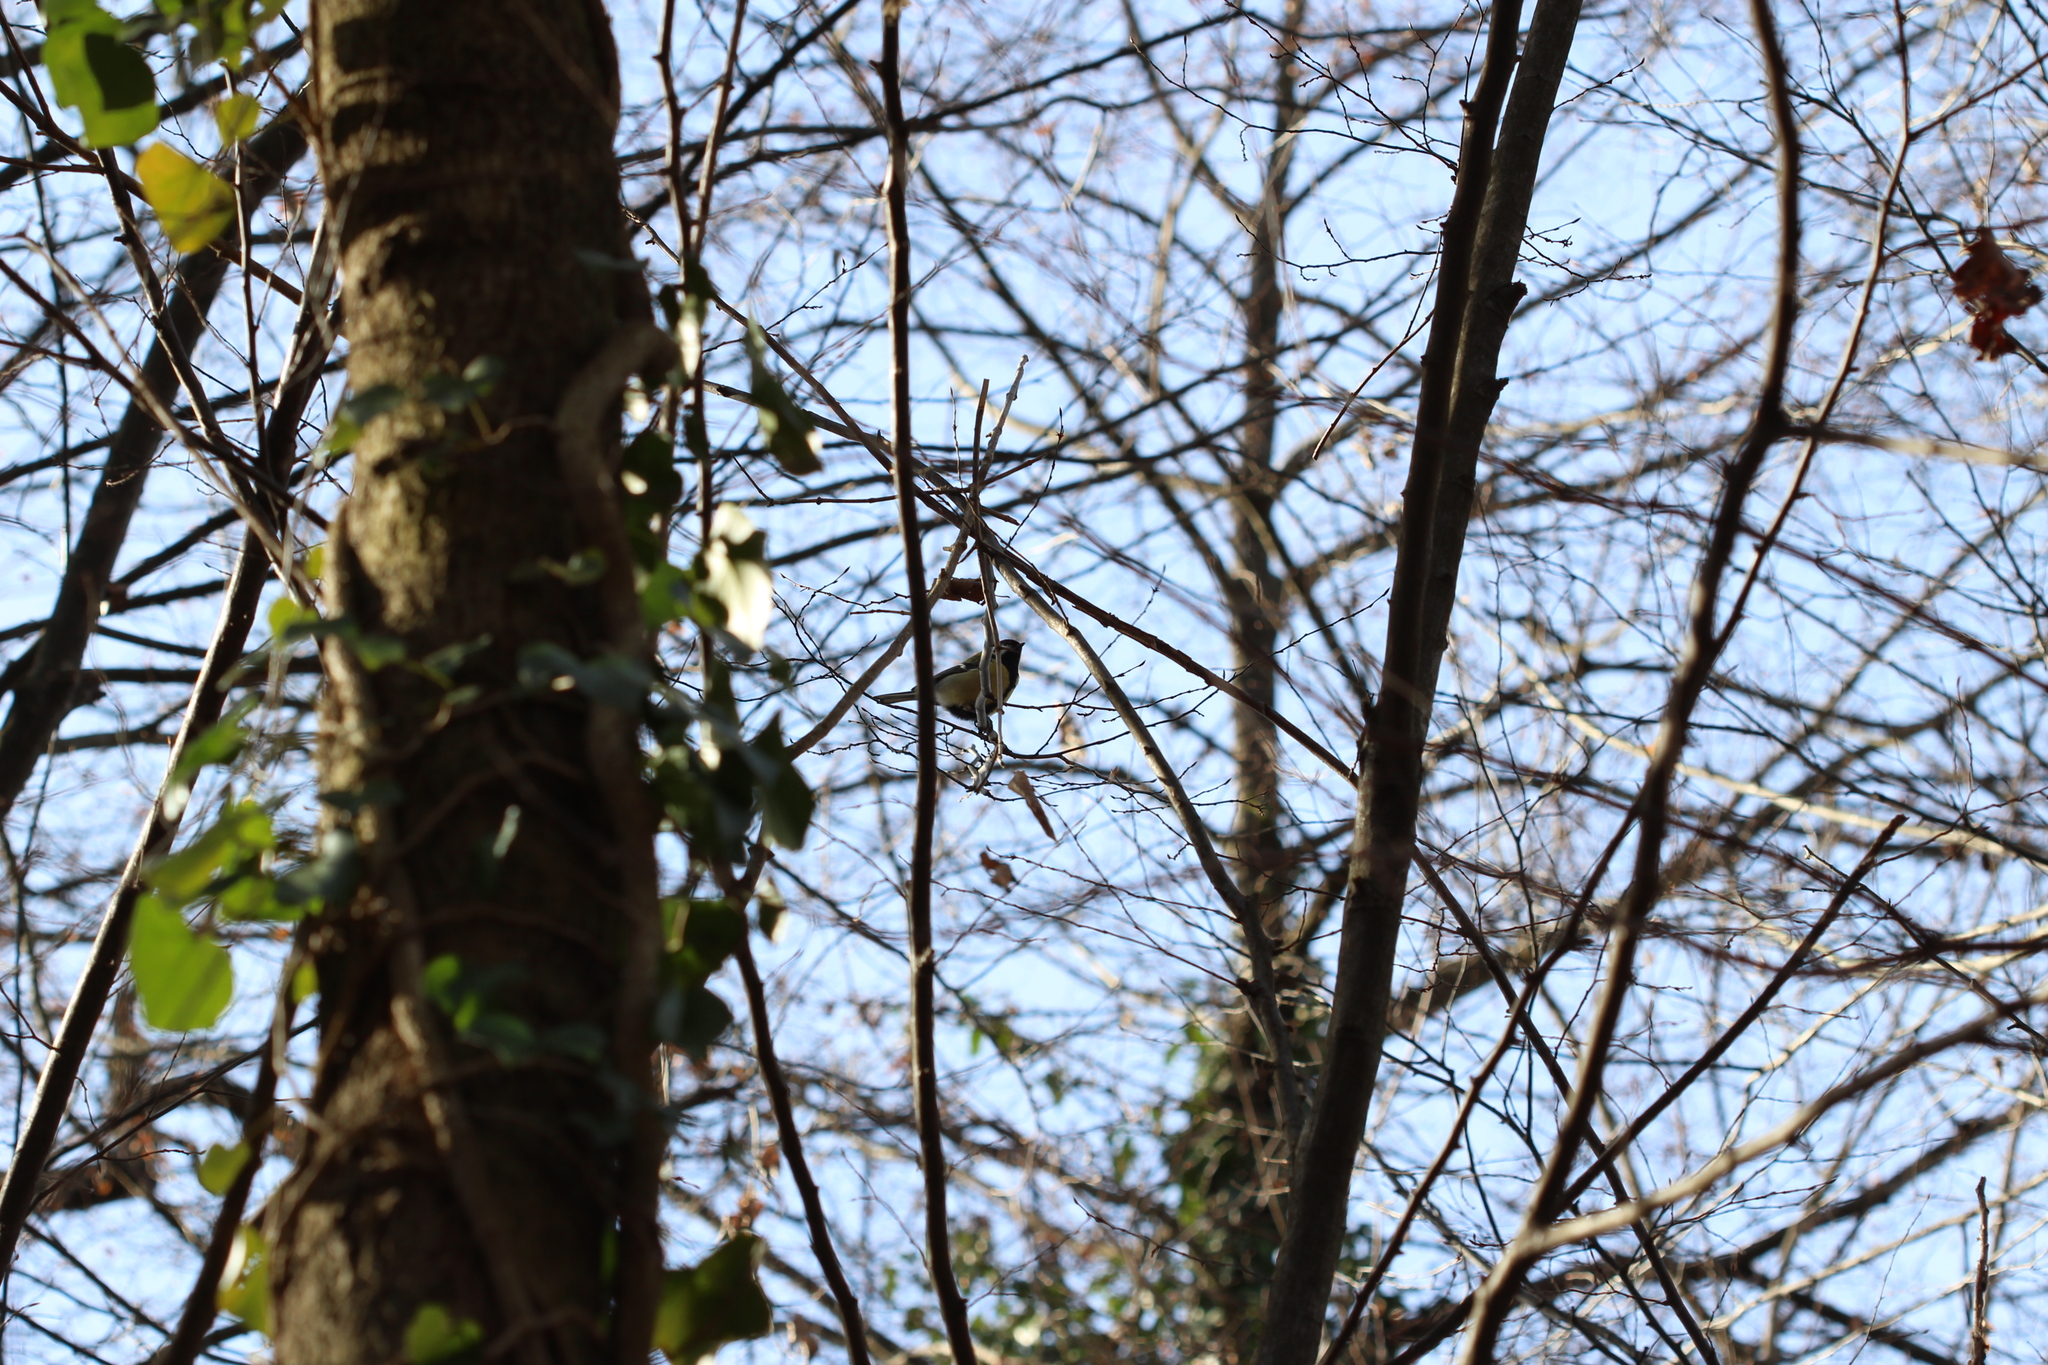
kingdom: Animalia
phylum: Chordata
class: Aves
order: Passeriformes
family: Paridae
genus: Parus
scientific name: Parus major
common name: Great tit
